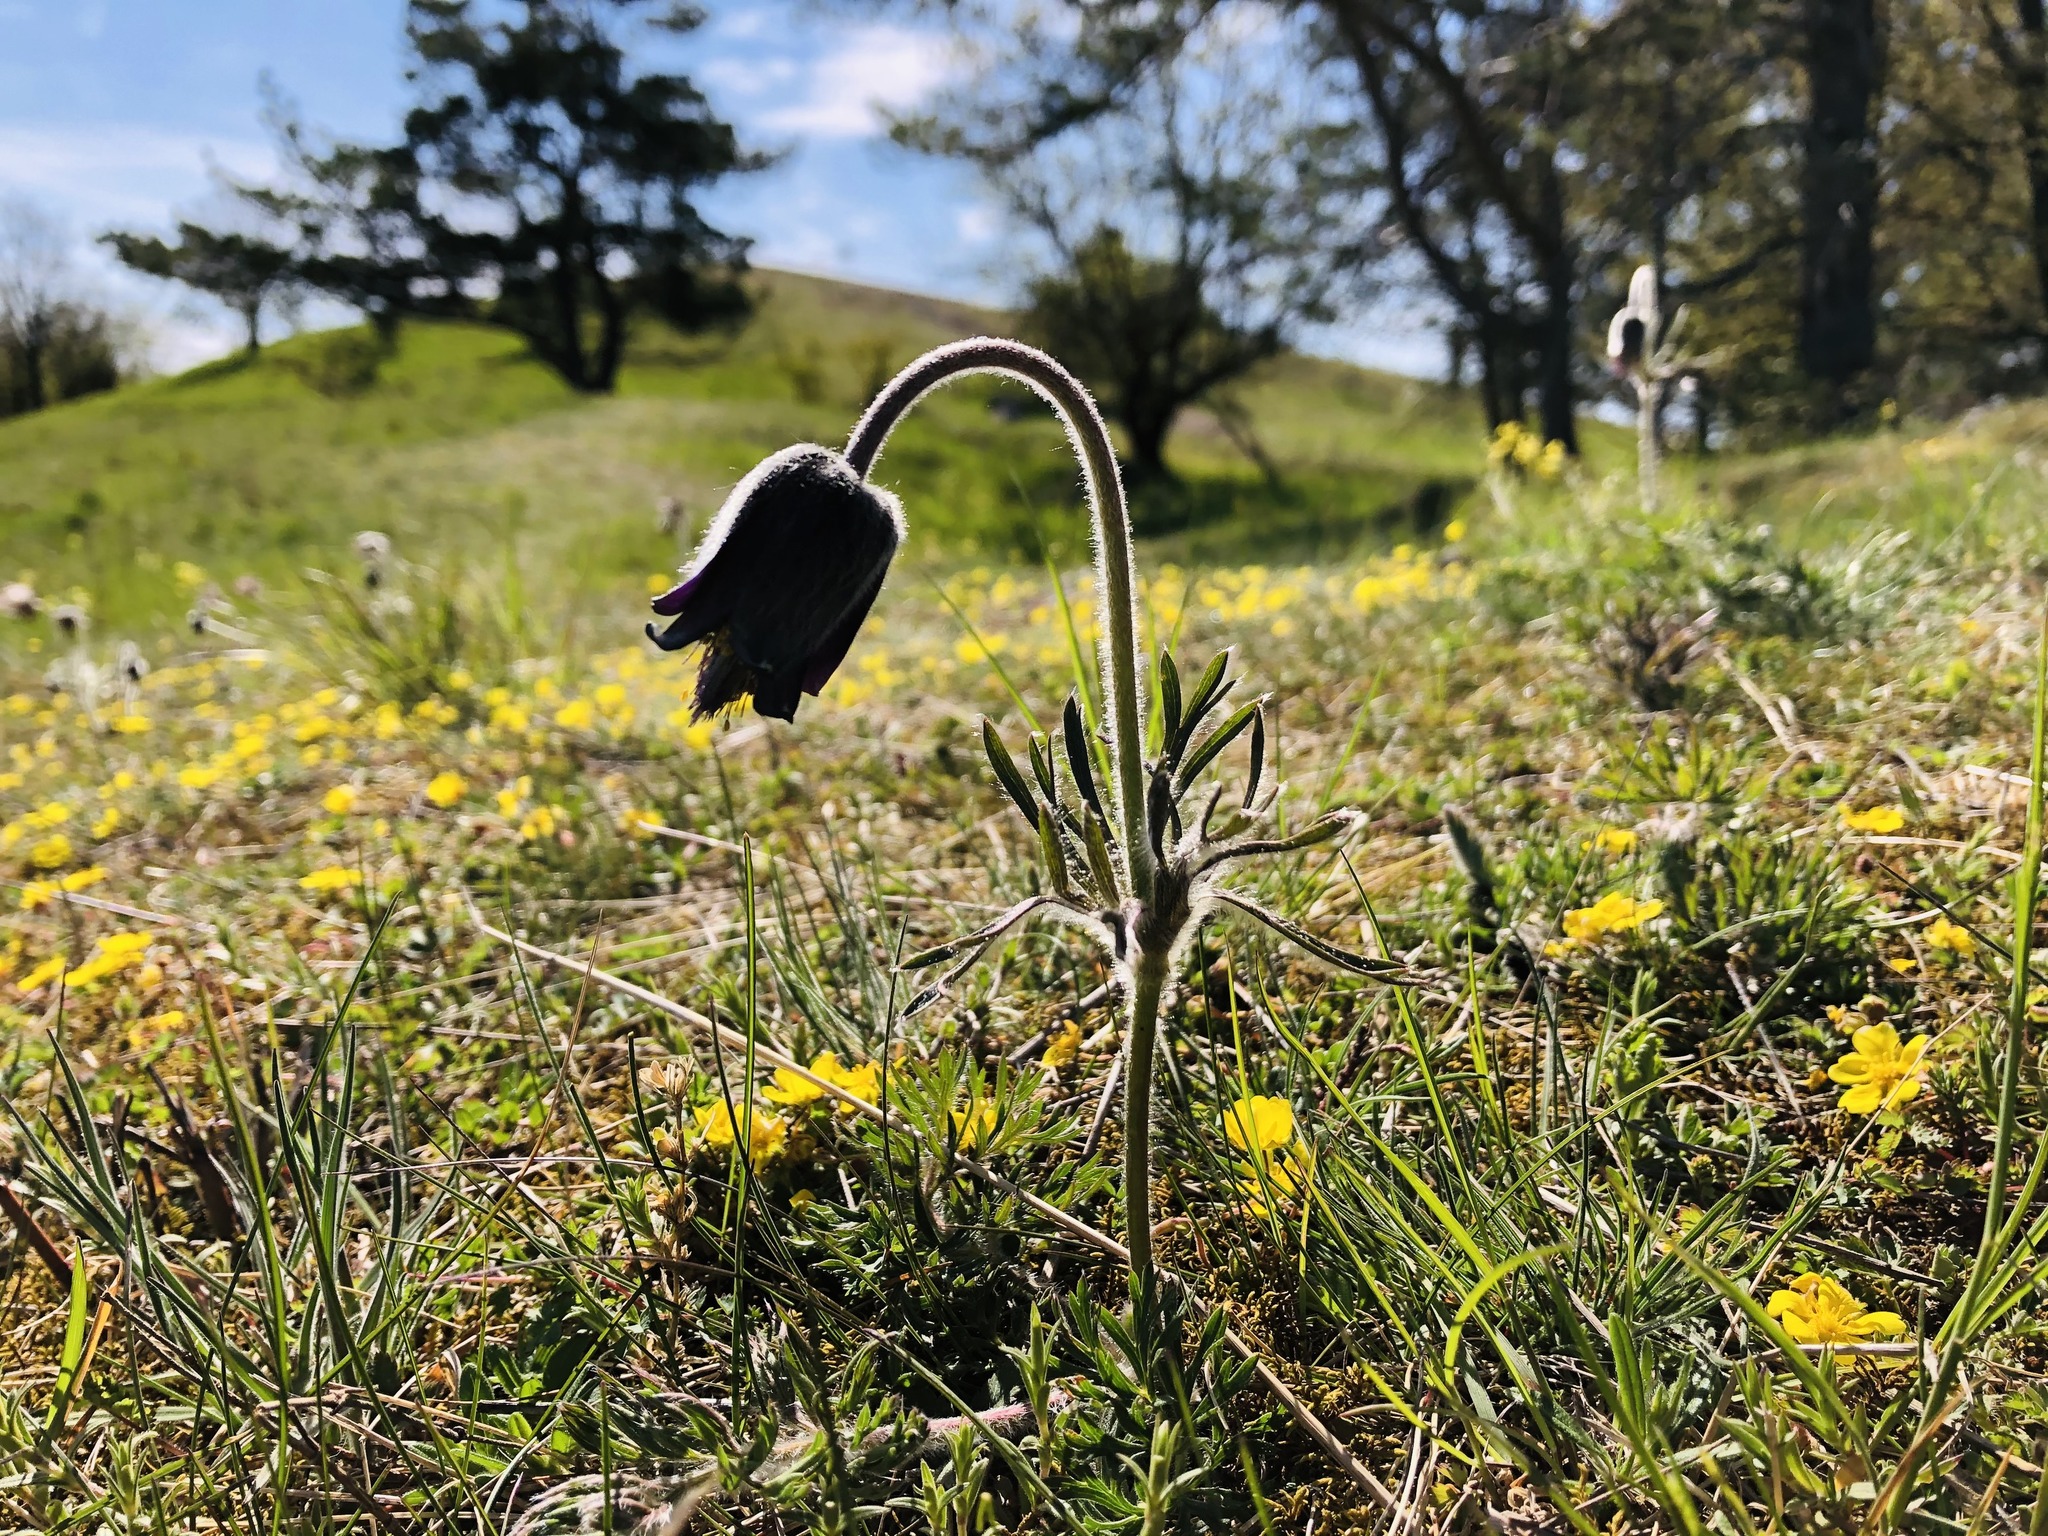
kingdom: Plantae
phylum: Tracheophyta
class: Magnoliopsida
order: Ranunculales
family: Ranunculaceae
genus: Pulsatilla
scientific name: Pulsatilla pratensis
